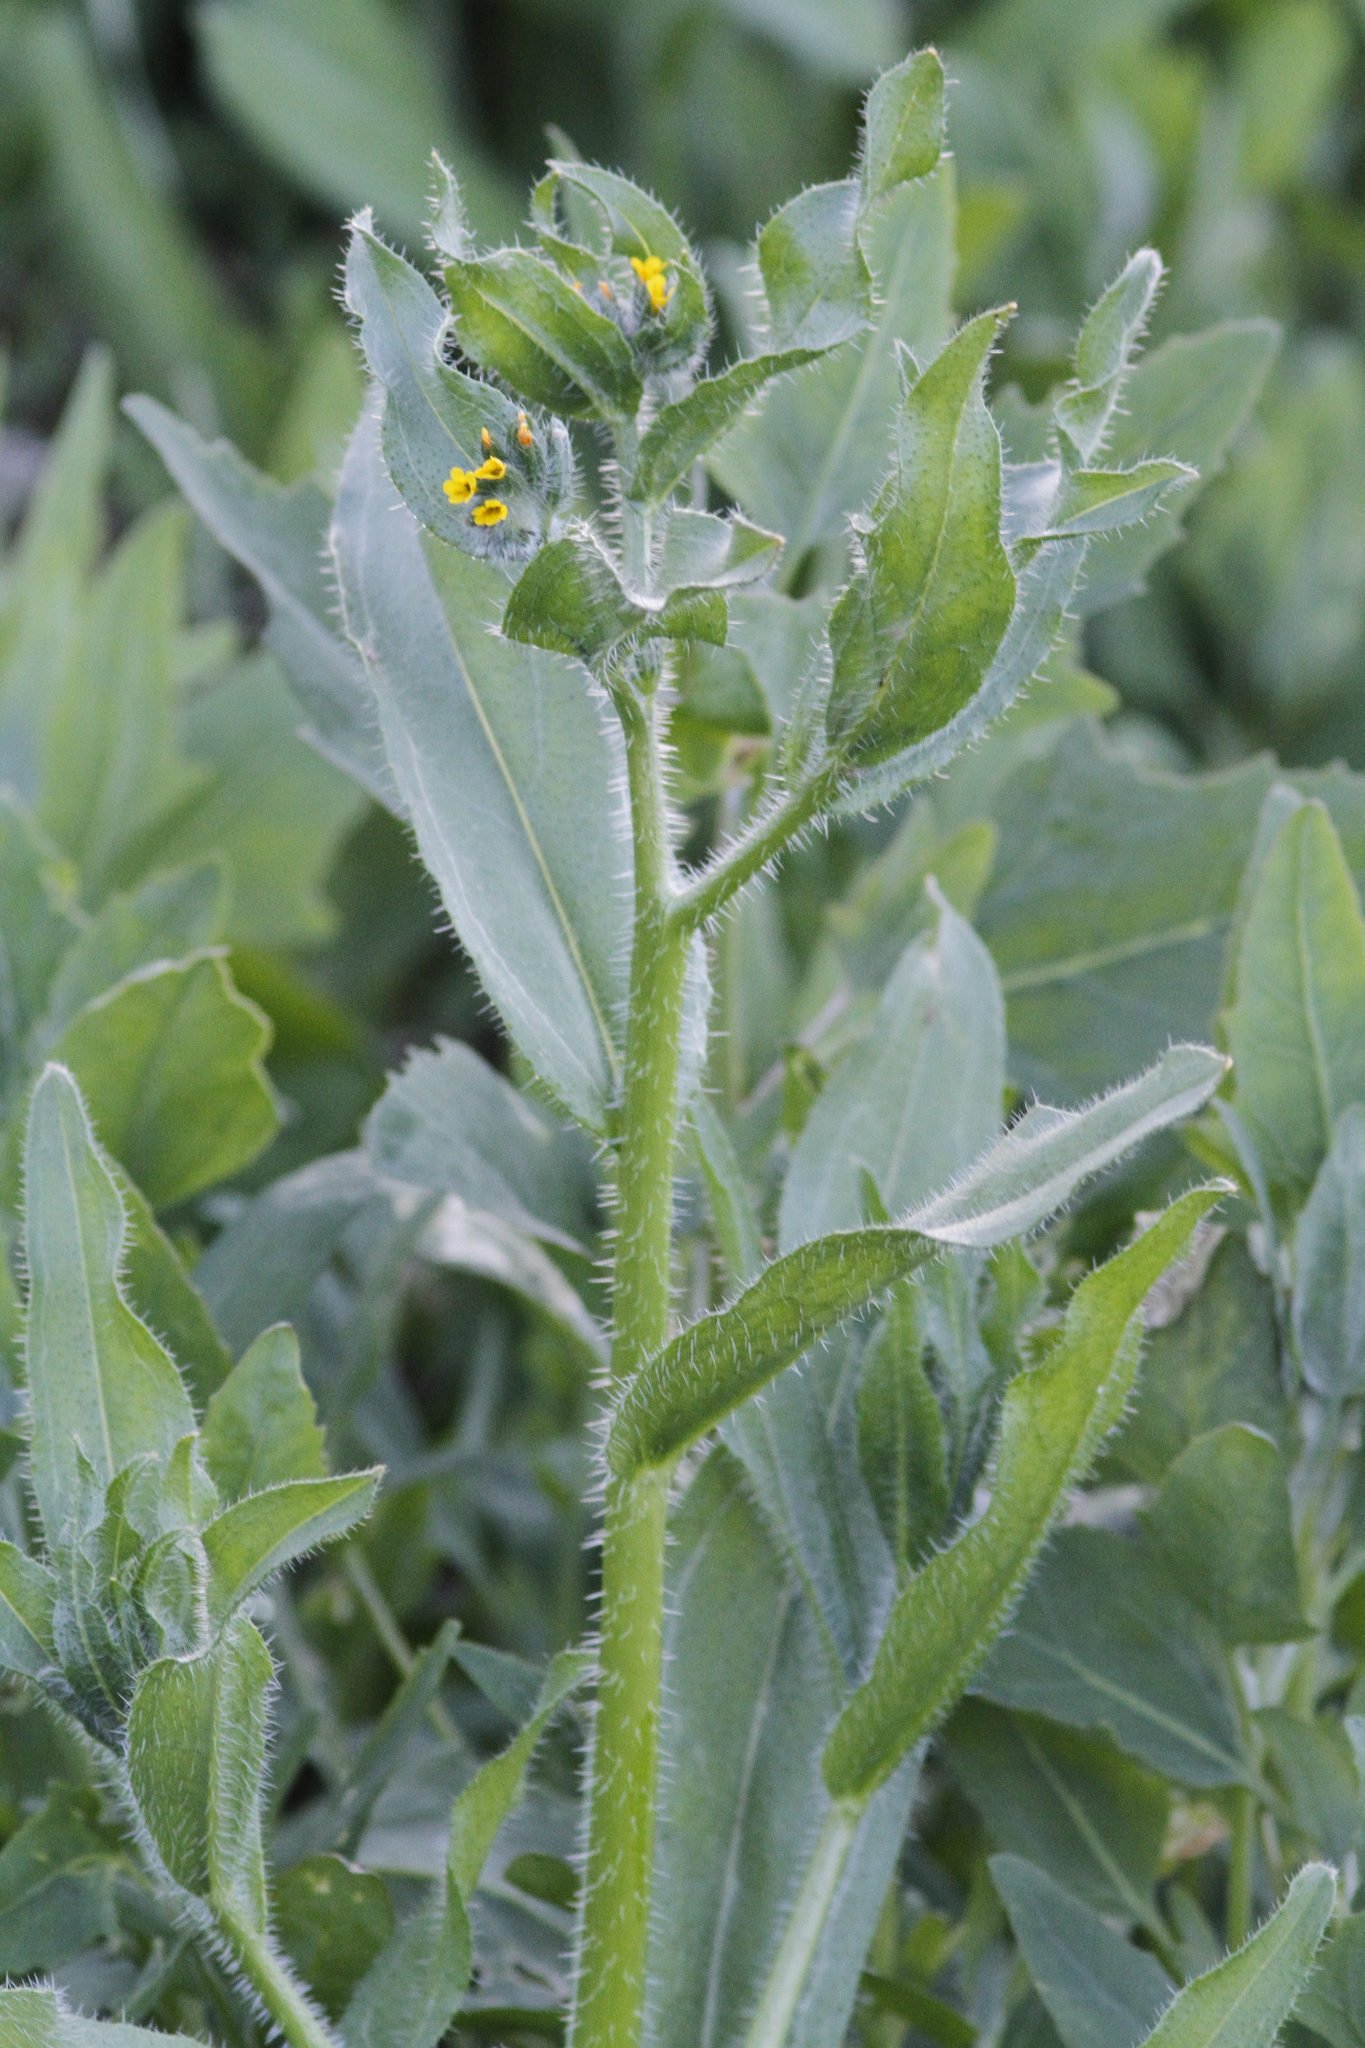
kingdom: Plantae
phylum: Tracheophyta
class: Magnoliopsida
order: Boraginales
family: Boraginaceae
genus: Amsinckia
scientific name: Amsinckia menziesii
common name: Menzies' fiddleneck
